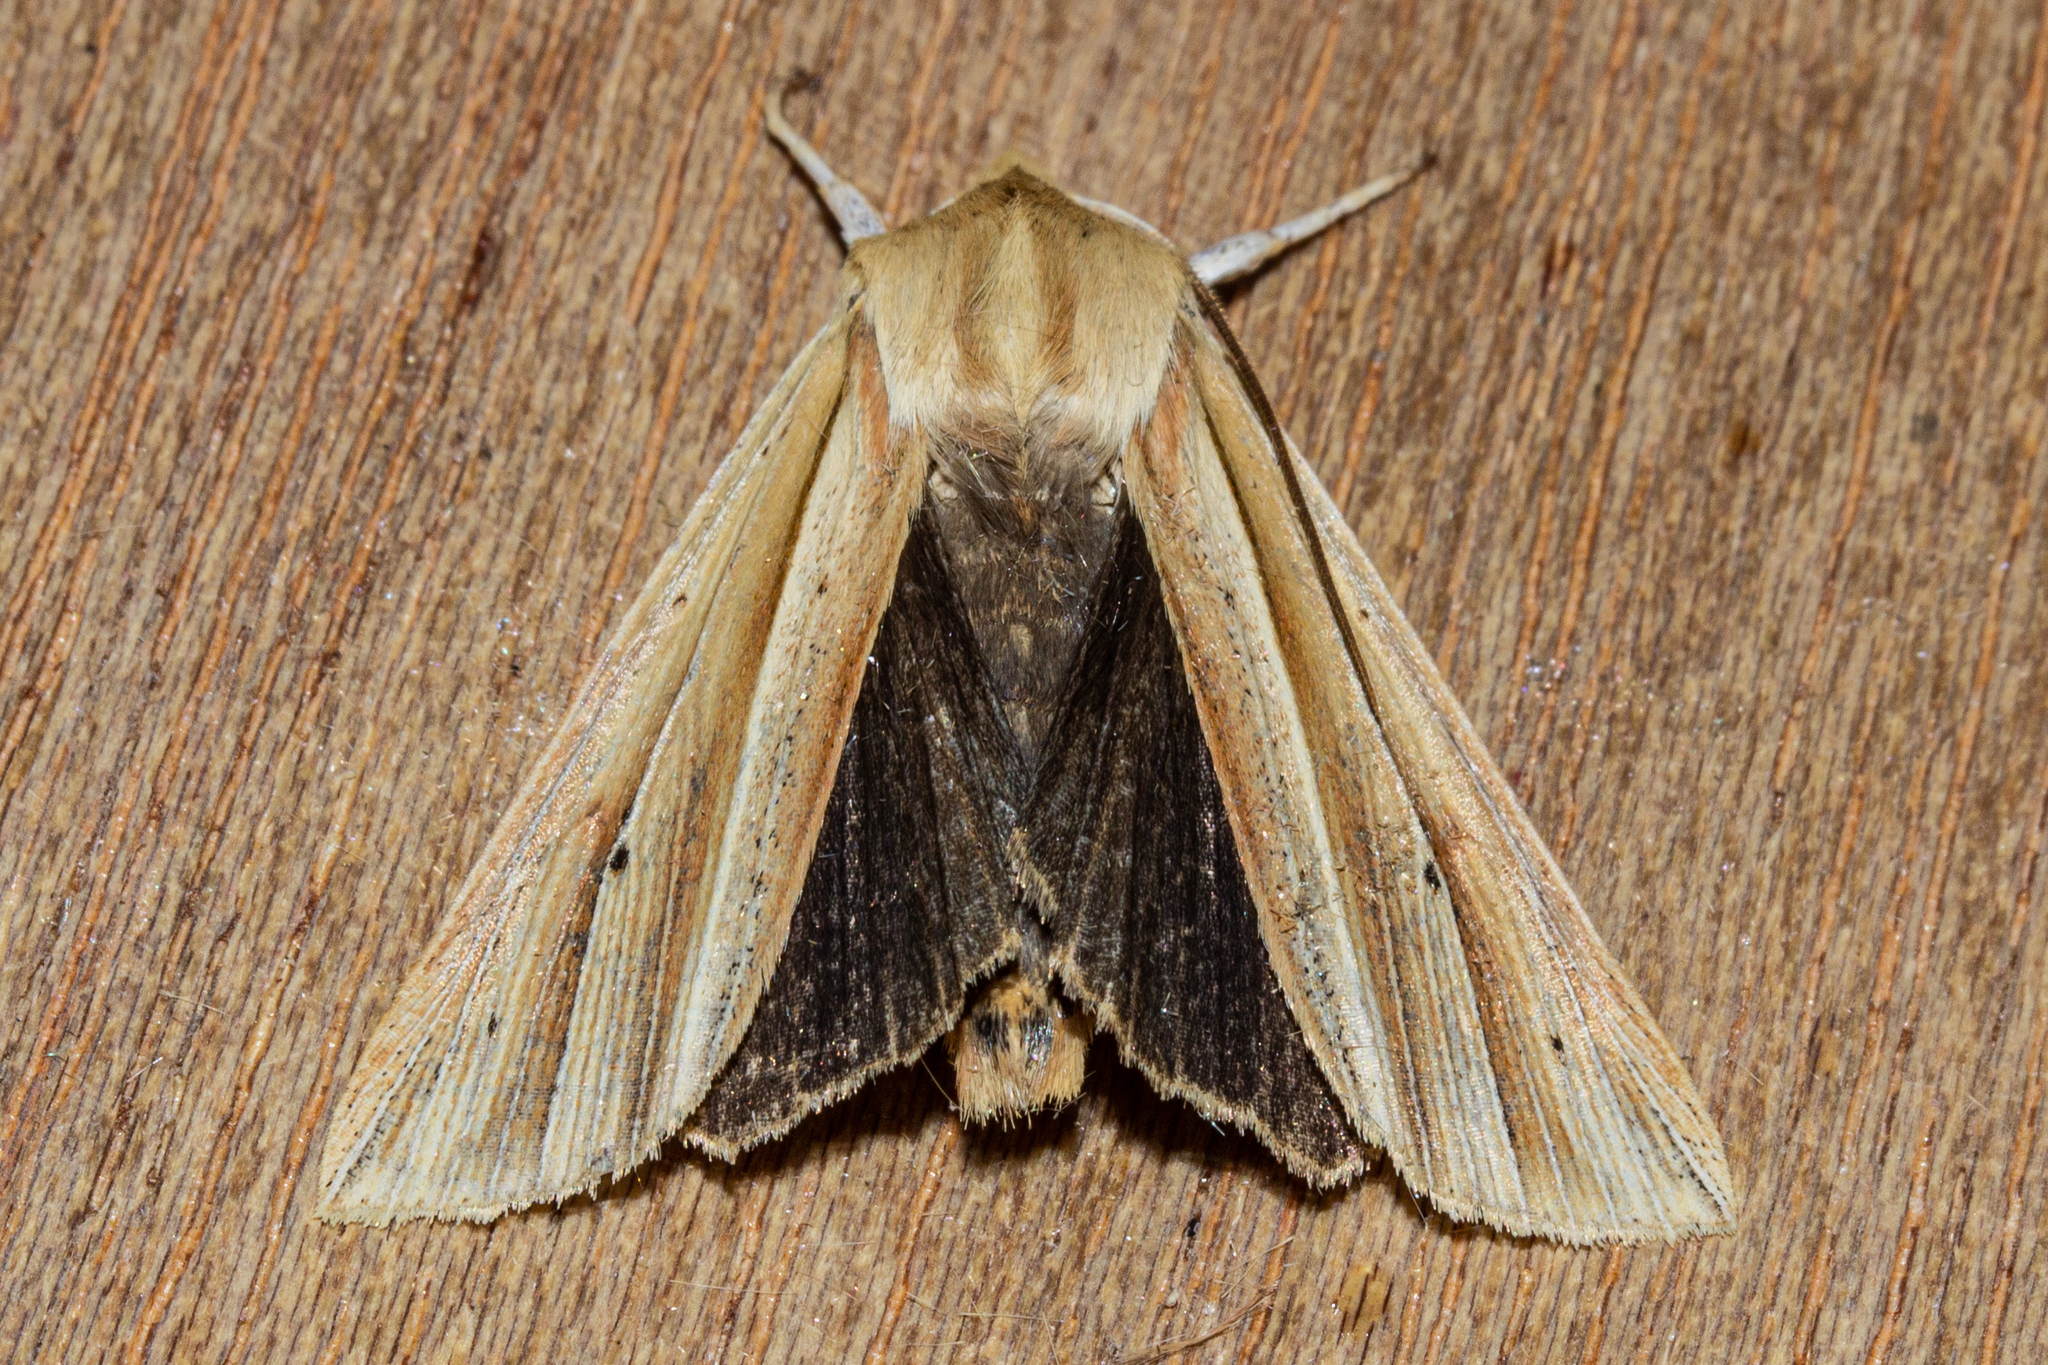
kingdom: Animalia
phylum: Arthropoda
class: Insecta
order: Lepidoptera
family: Noctuidae
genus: Ichneutica
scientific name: Ichneutica sulcana
